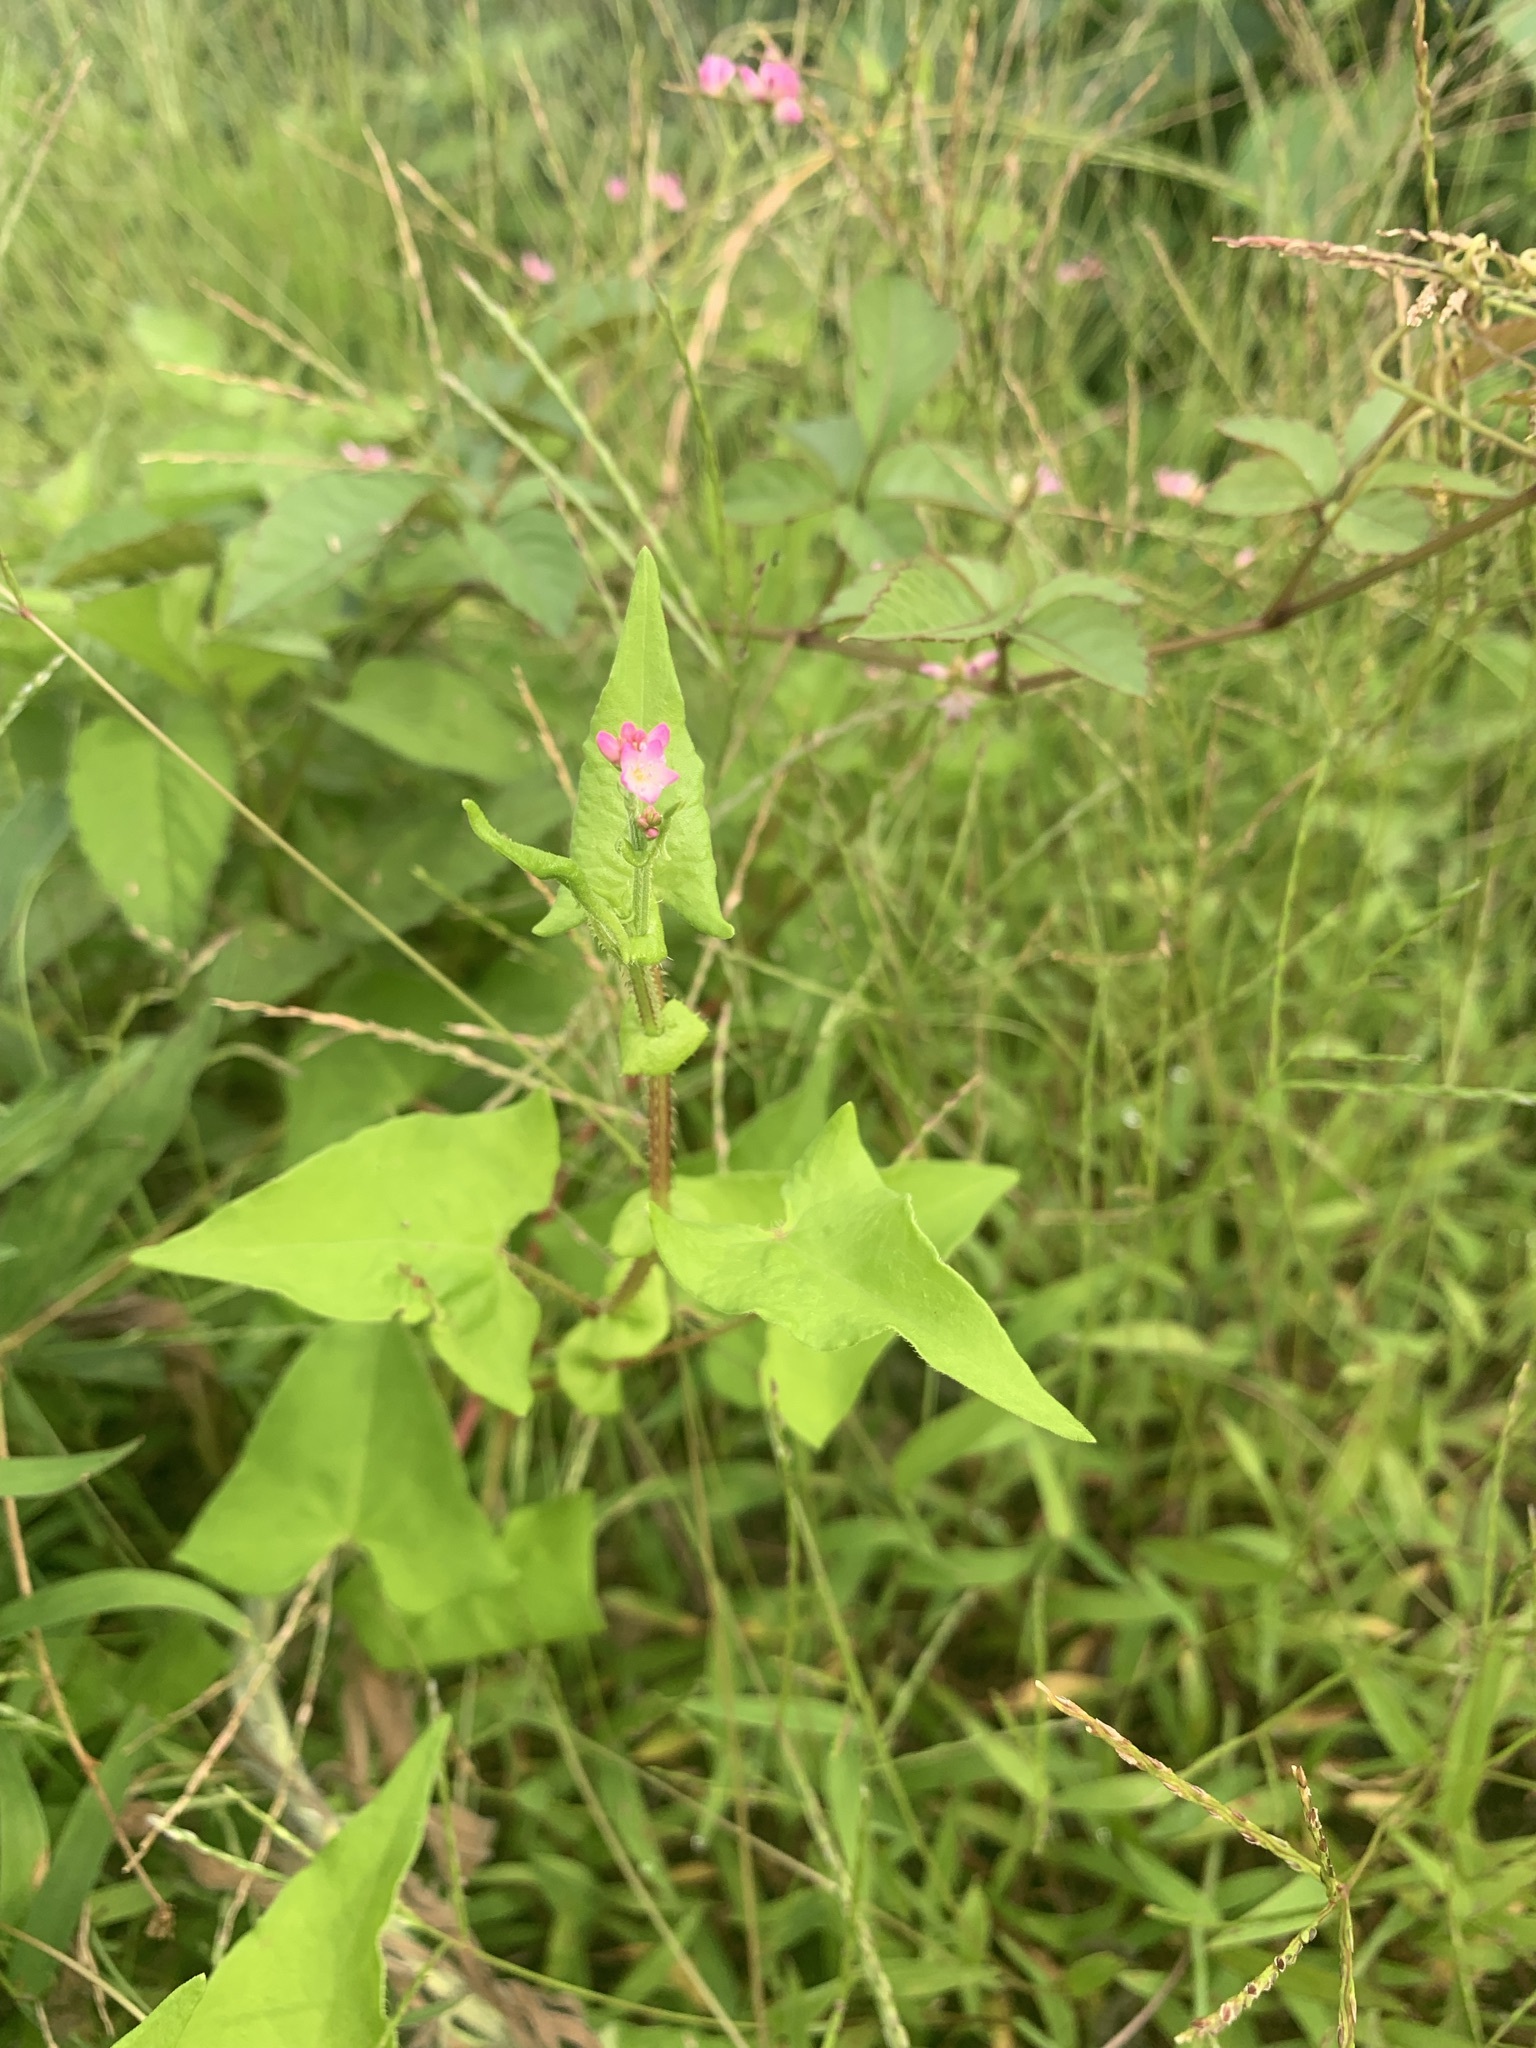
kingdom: Plantae
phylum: Tracheophyta
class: Magnoliopsida
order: Caryophyllales
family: Polygonaceae
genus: Persicaria
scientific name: Persicaria senticosa
